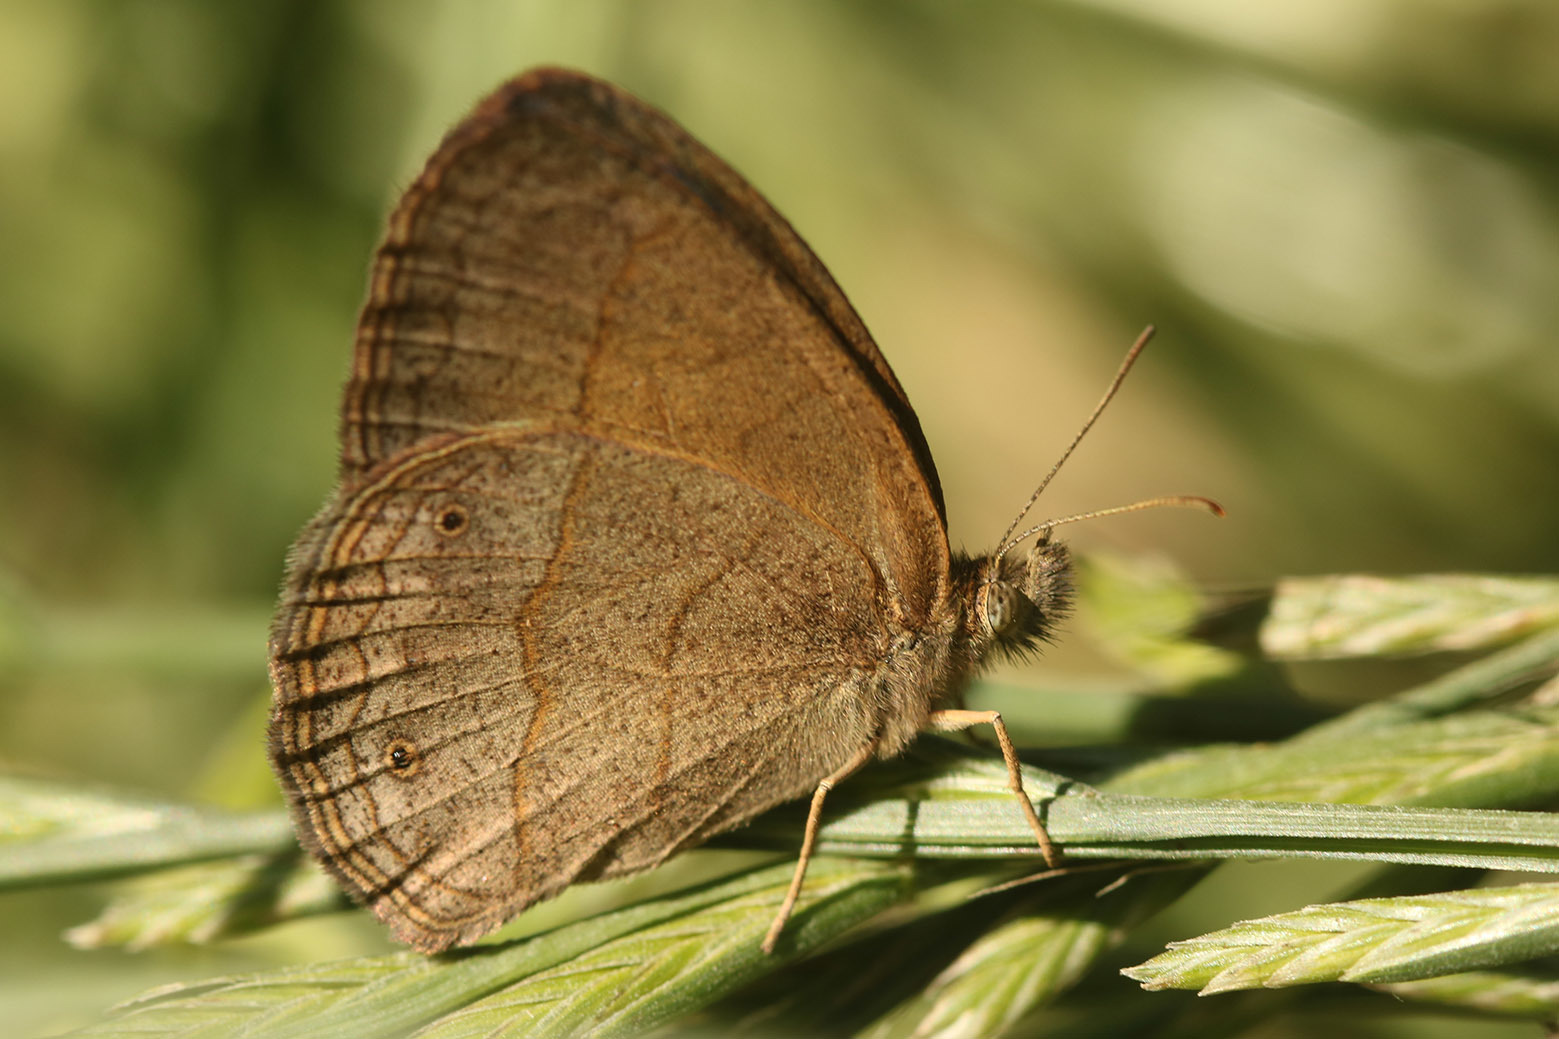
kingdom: Animalia
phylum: Arthropoda
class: Insecta
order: Lepidoptera
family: Nymphalidae
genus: Yphthimoides
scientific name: Yphthimoides celmis
